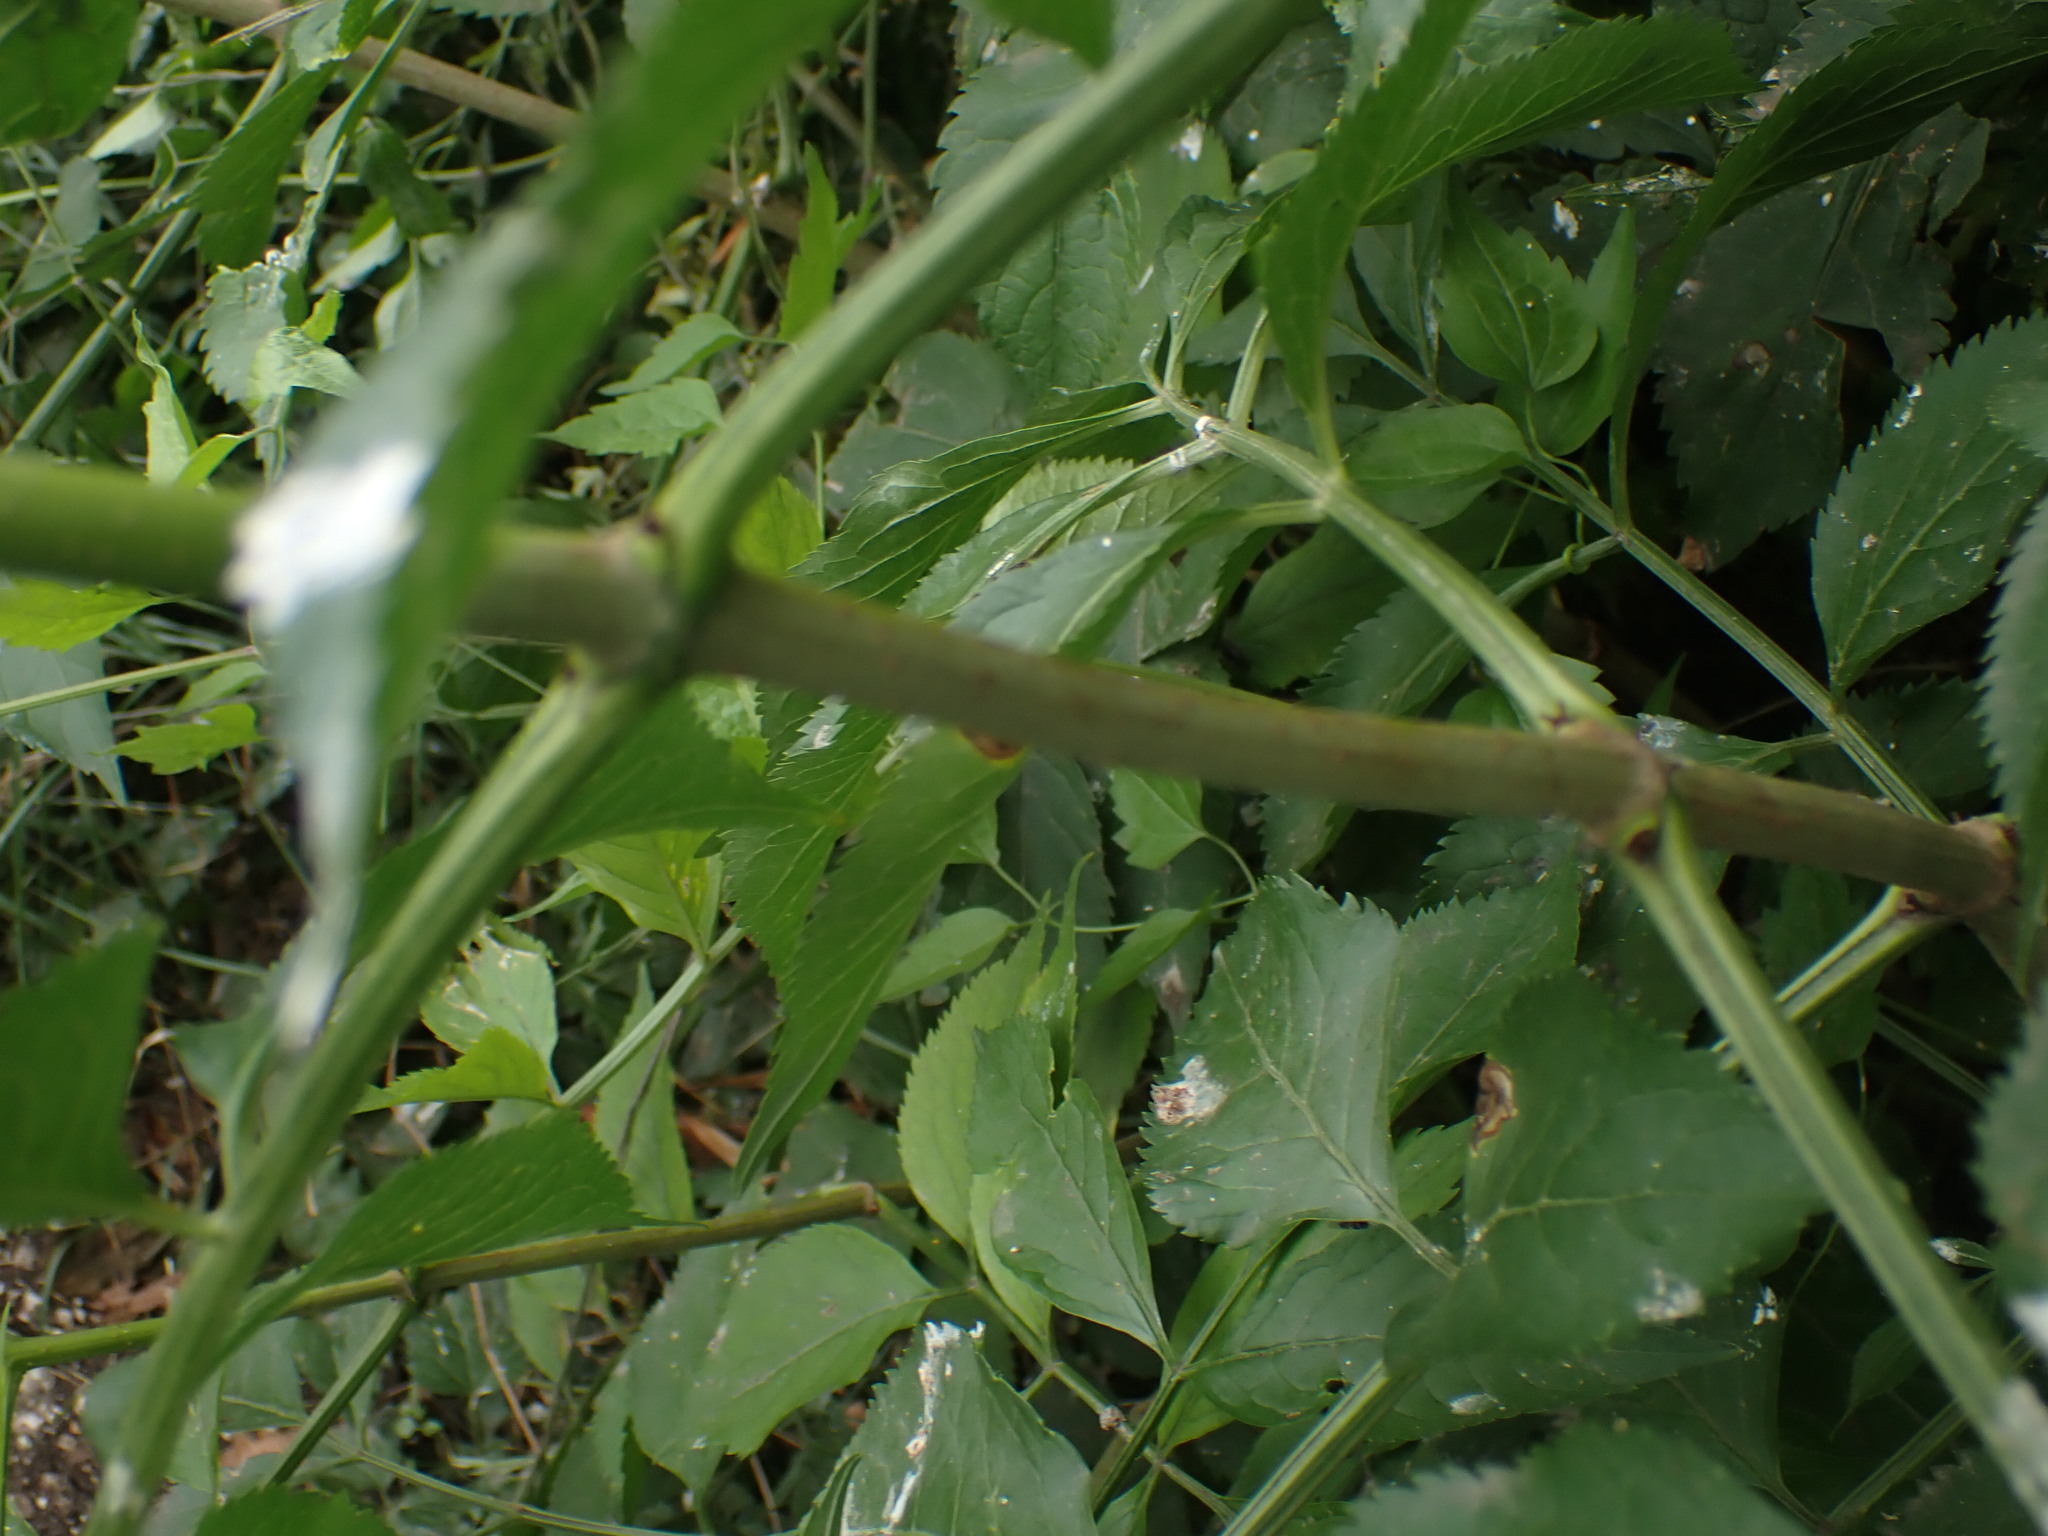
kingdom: Plantae
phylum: Tracheophyta
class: Magnoliopsida
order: Dipsacales
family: Viburnaceae
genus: Sambucus
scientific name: Sambucus nigra
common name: Elder
